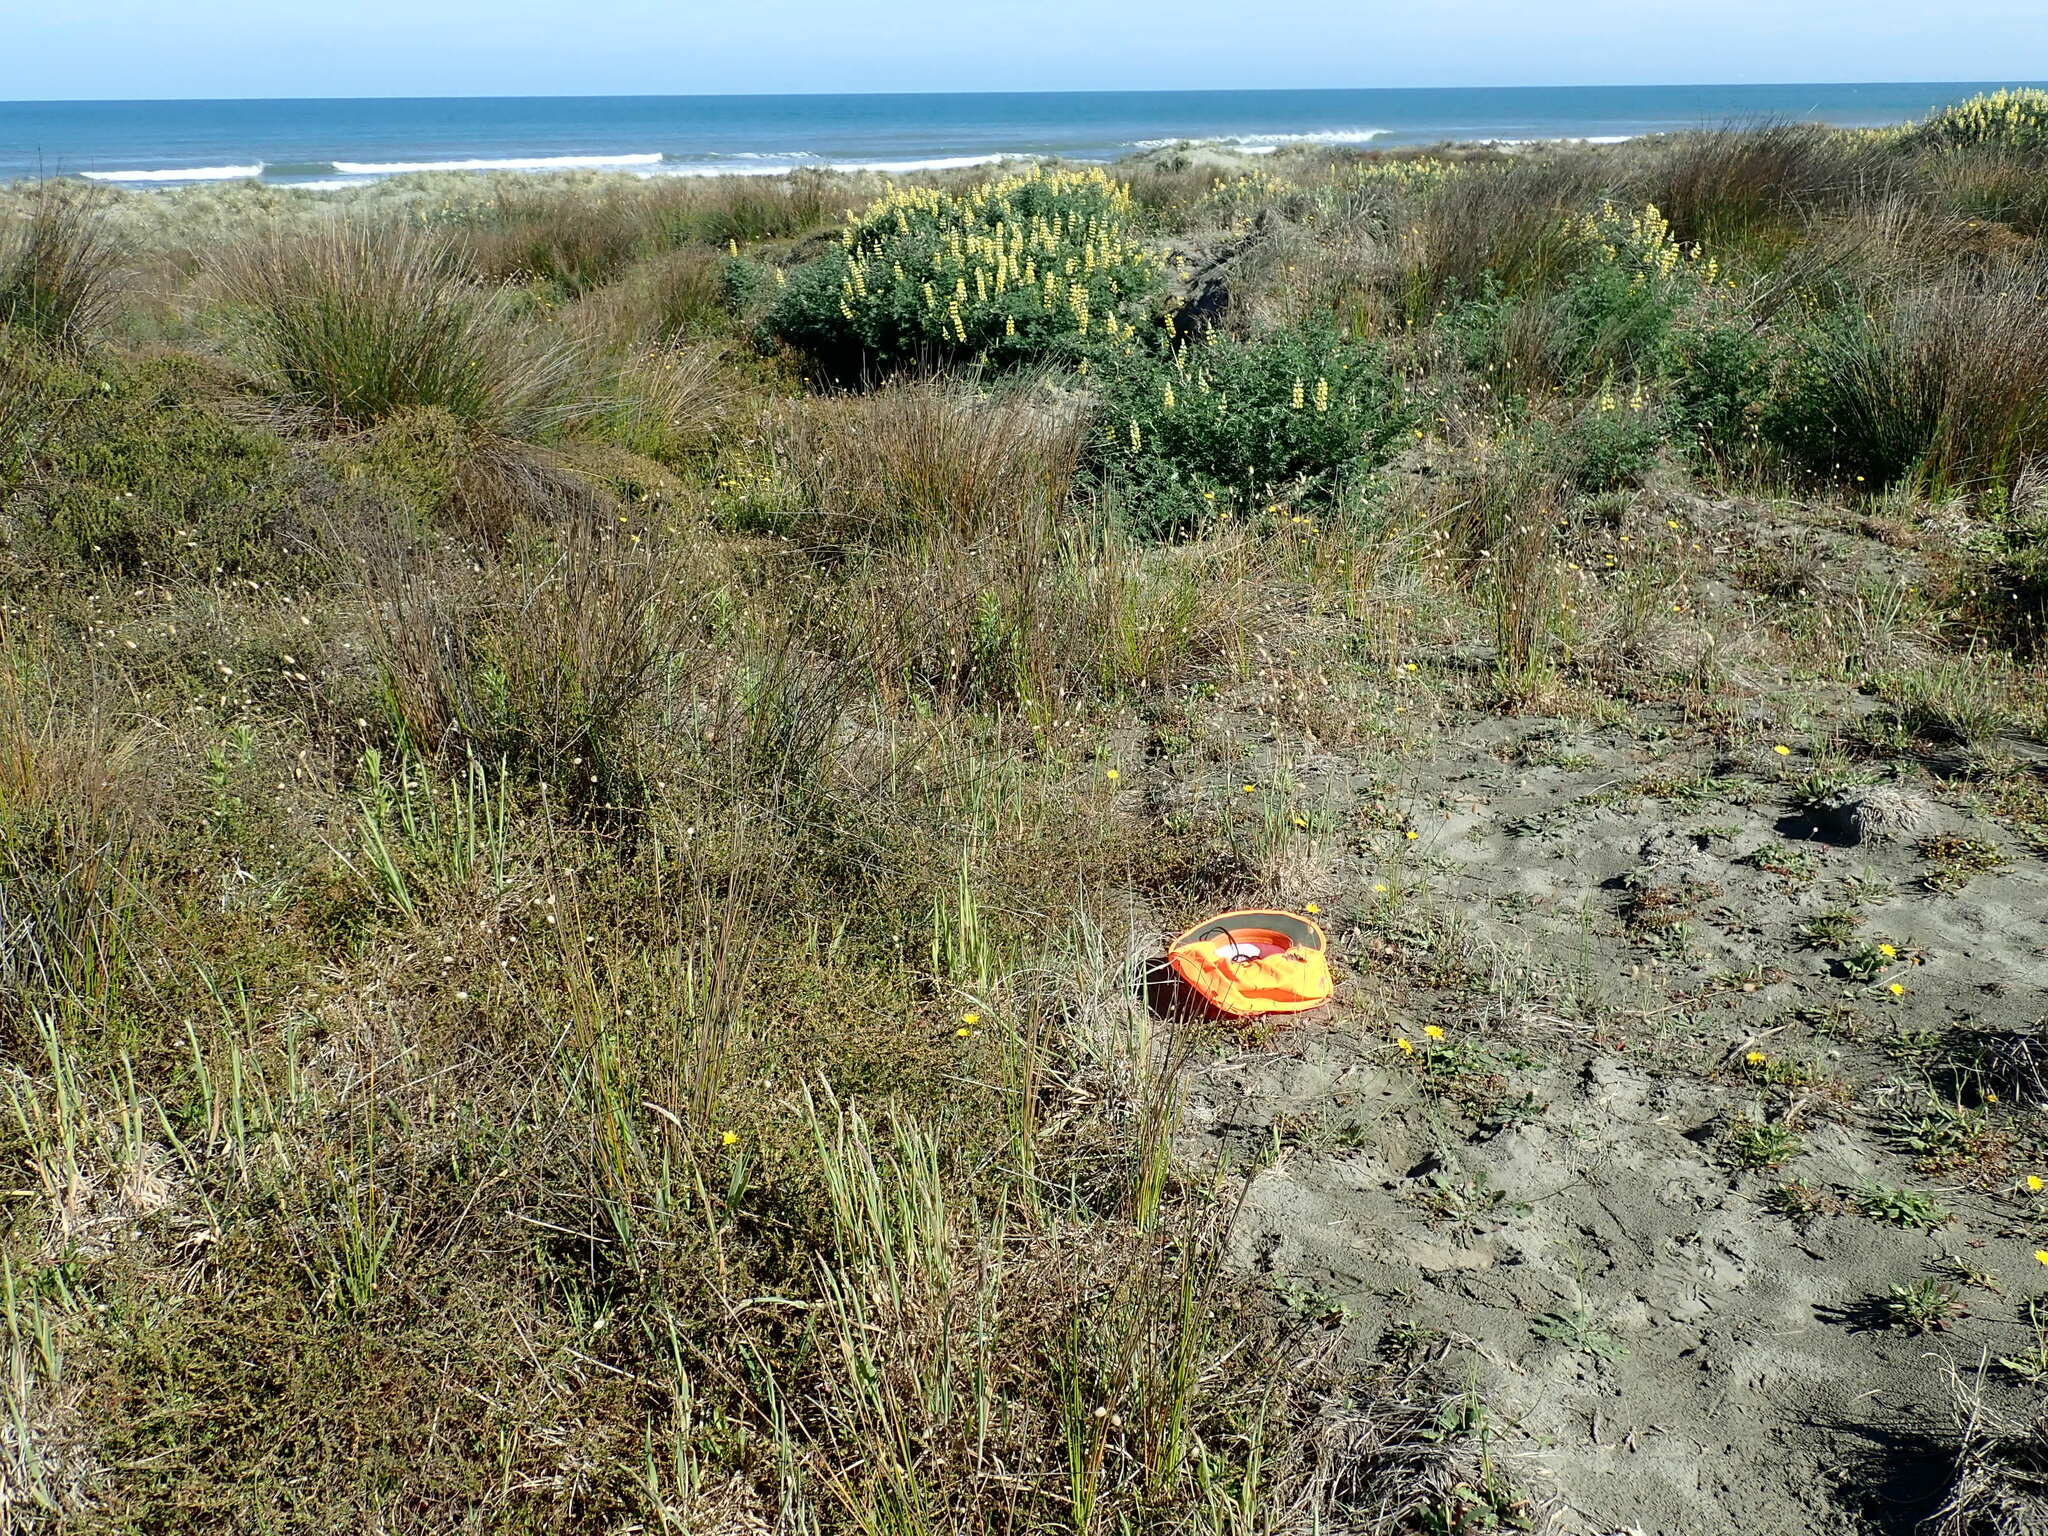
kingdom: Plantae
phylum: Tracheophyta
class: Magnoliopsida
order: Fabales
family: Fabaceae
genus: Trifolium
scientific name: Trifolium dubium
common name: Suckling clover
